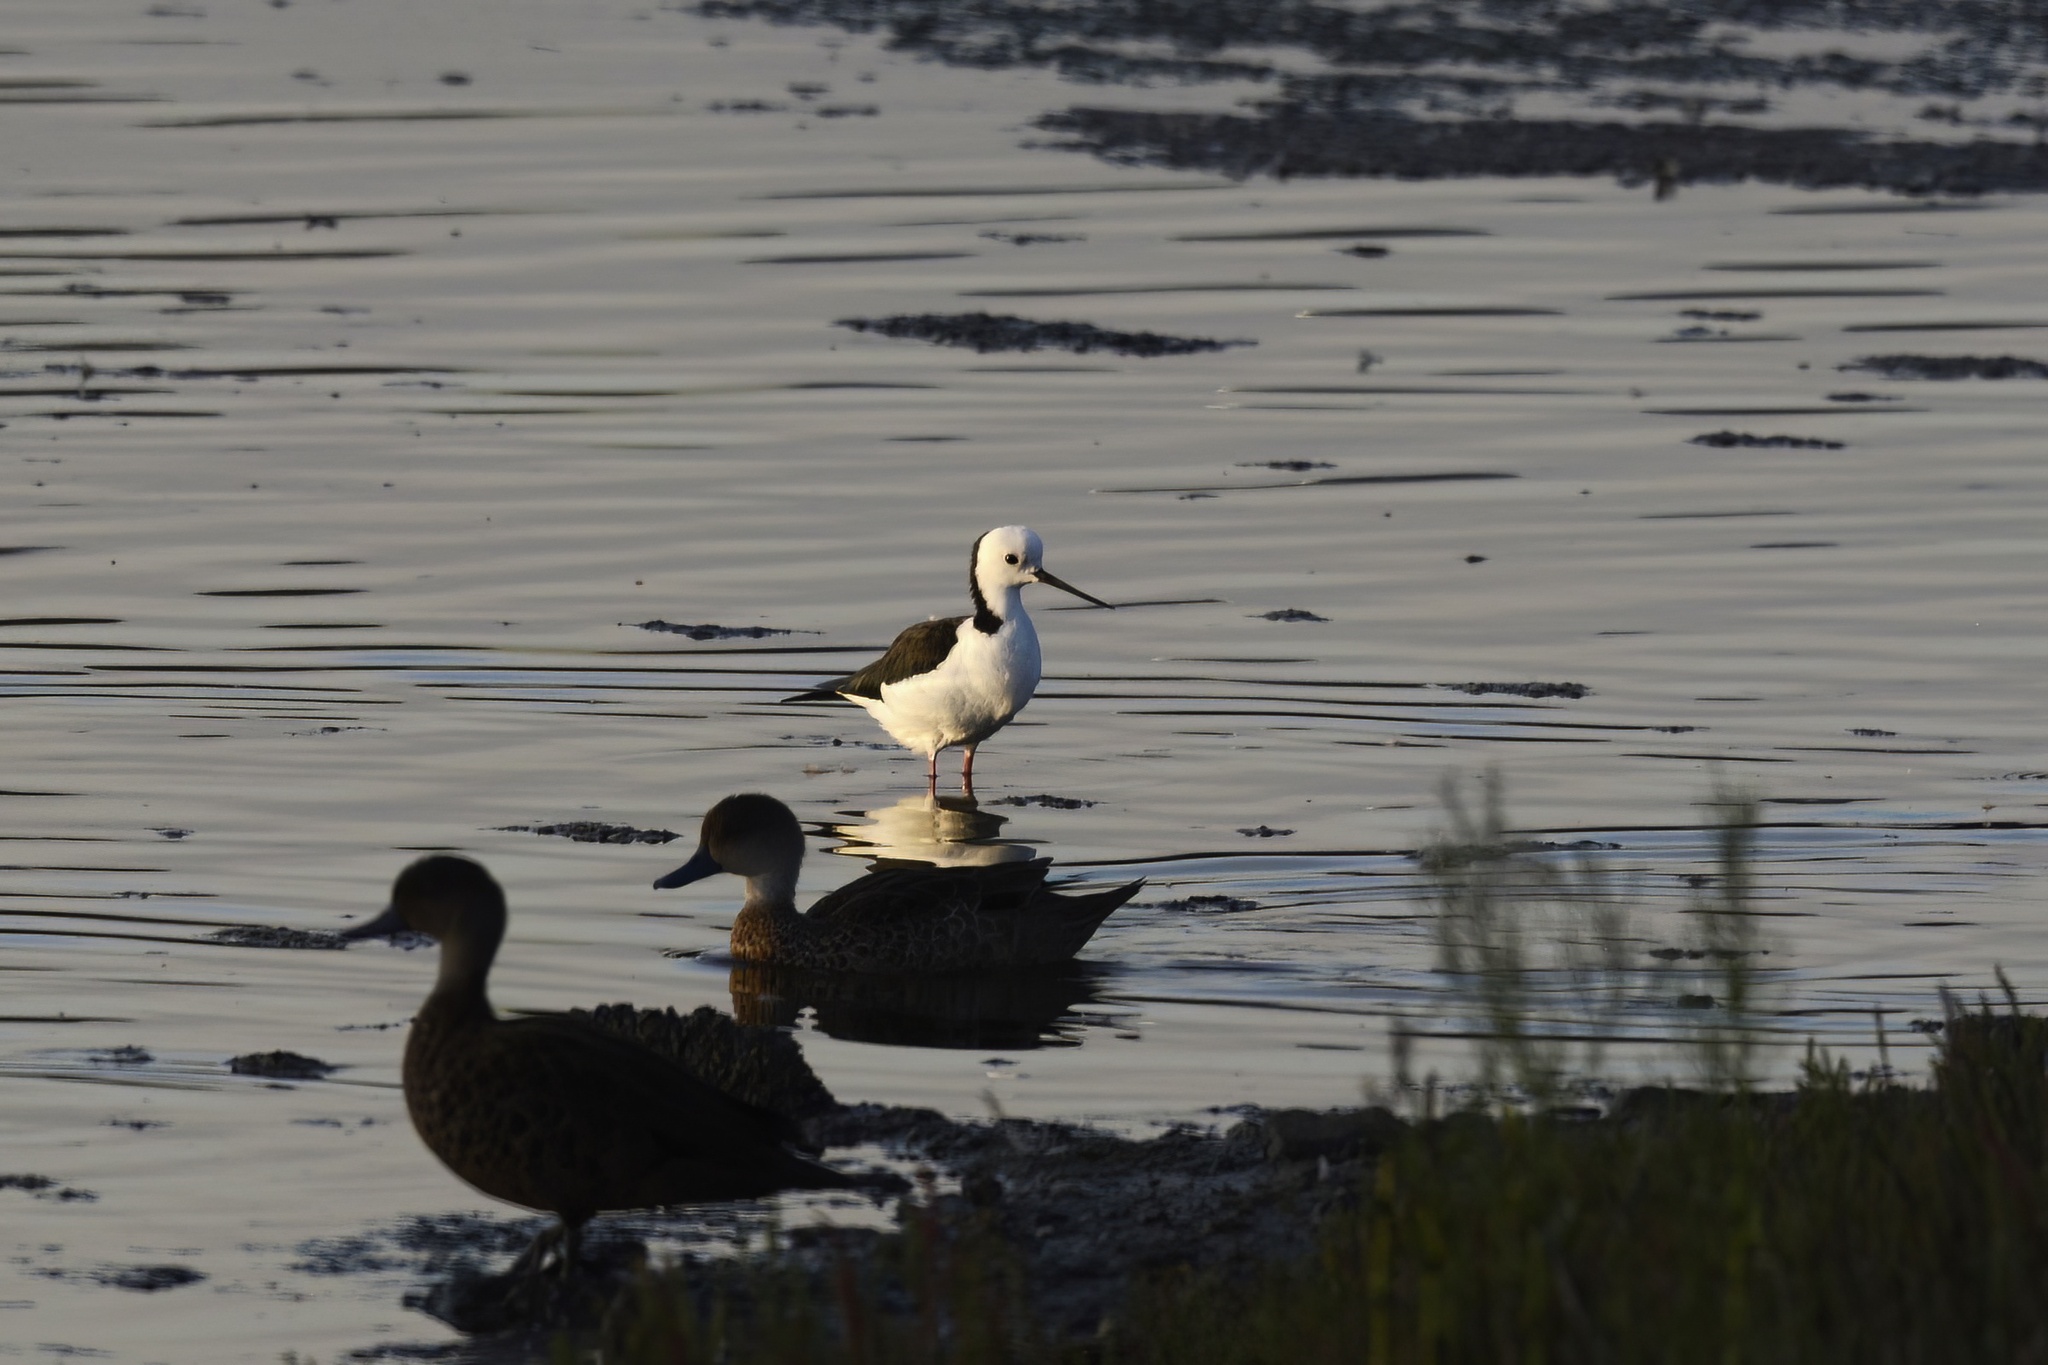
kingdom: Animalia
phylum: Chordata
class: Aves
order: Charadriiformes
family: Recurvirostridae
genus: Himantopus
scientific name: Himantopus leucocephalus
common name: White-headed stilt
